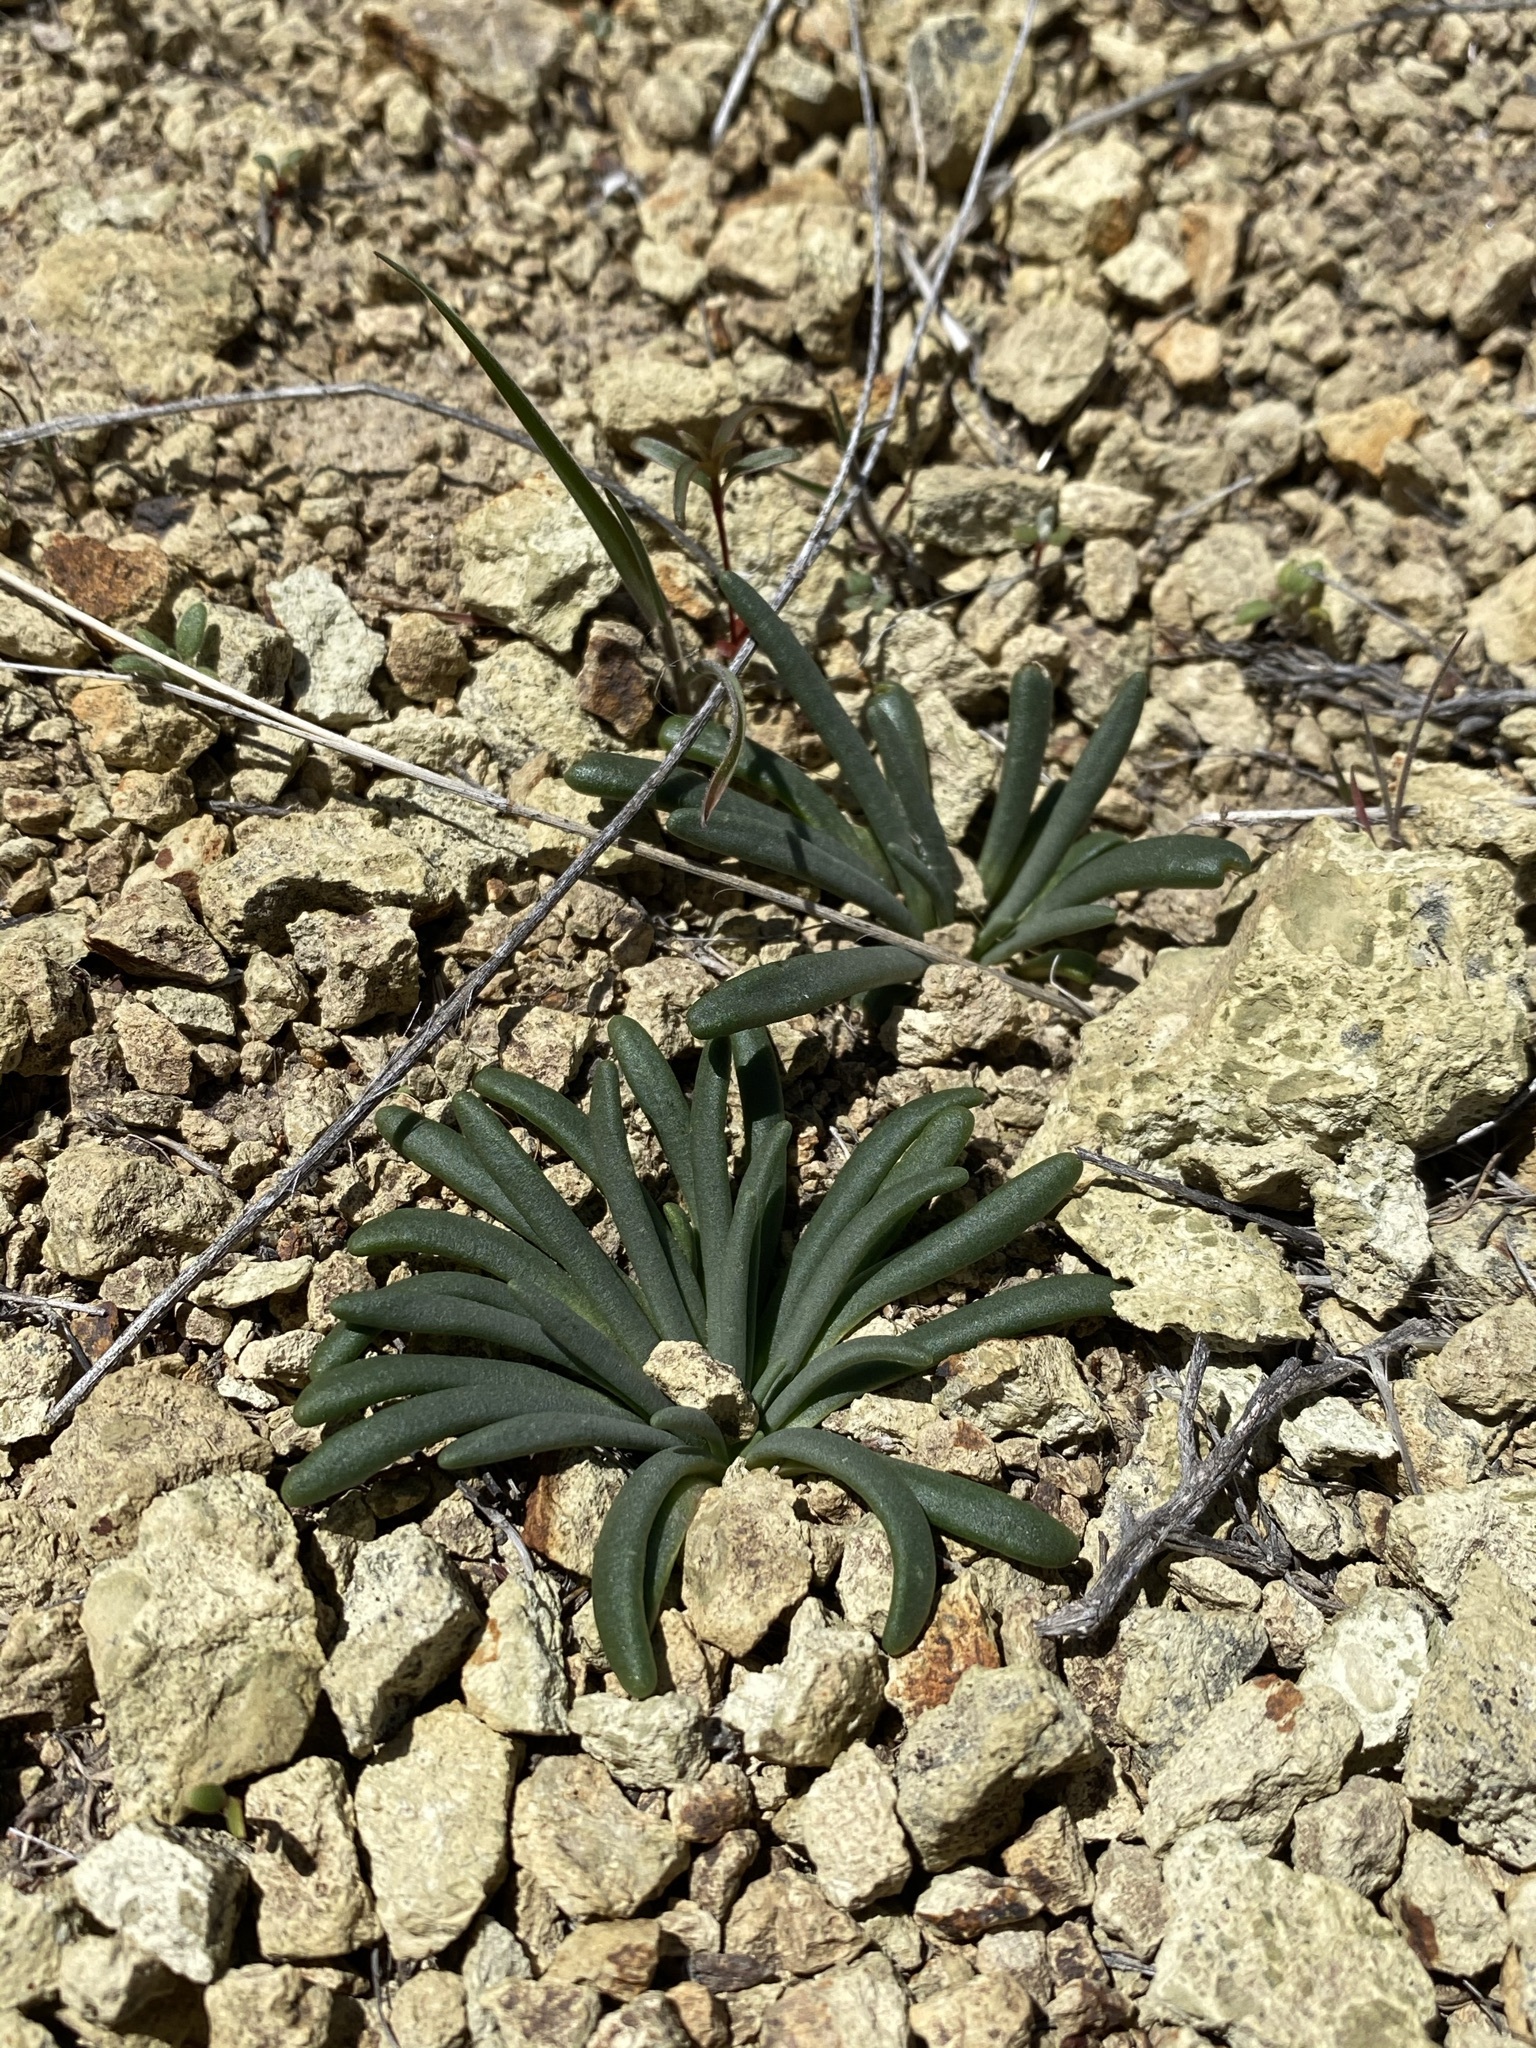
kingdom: Plantae
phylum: Tracheophyta
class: Magnoliopsida
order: Caryophyllales
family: Montiaceae
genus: Lewisia
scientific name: Lewisia rediviva
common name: Bitter-root
